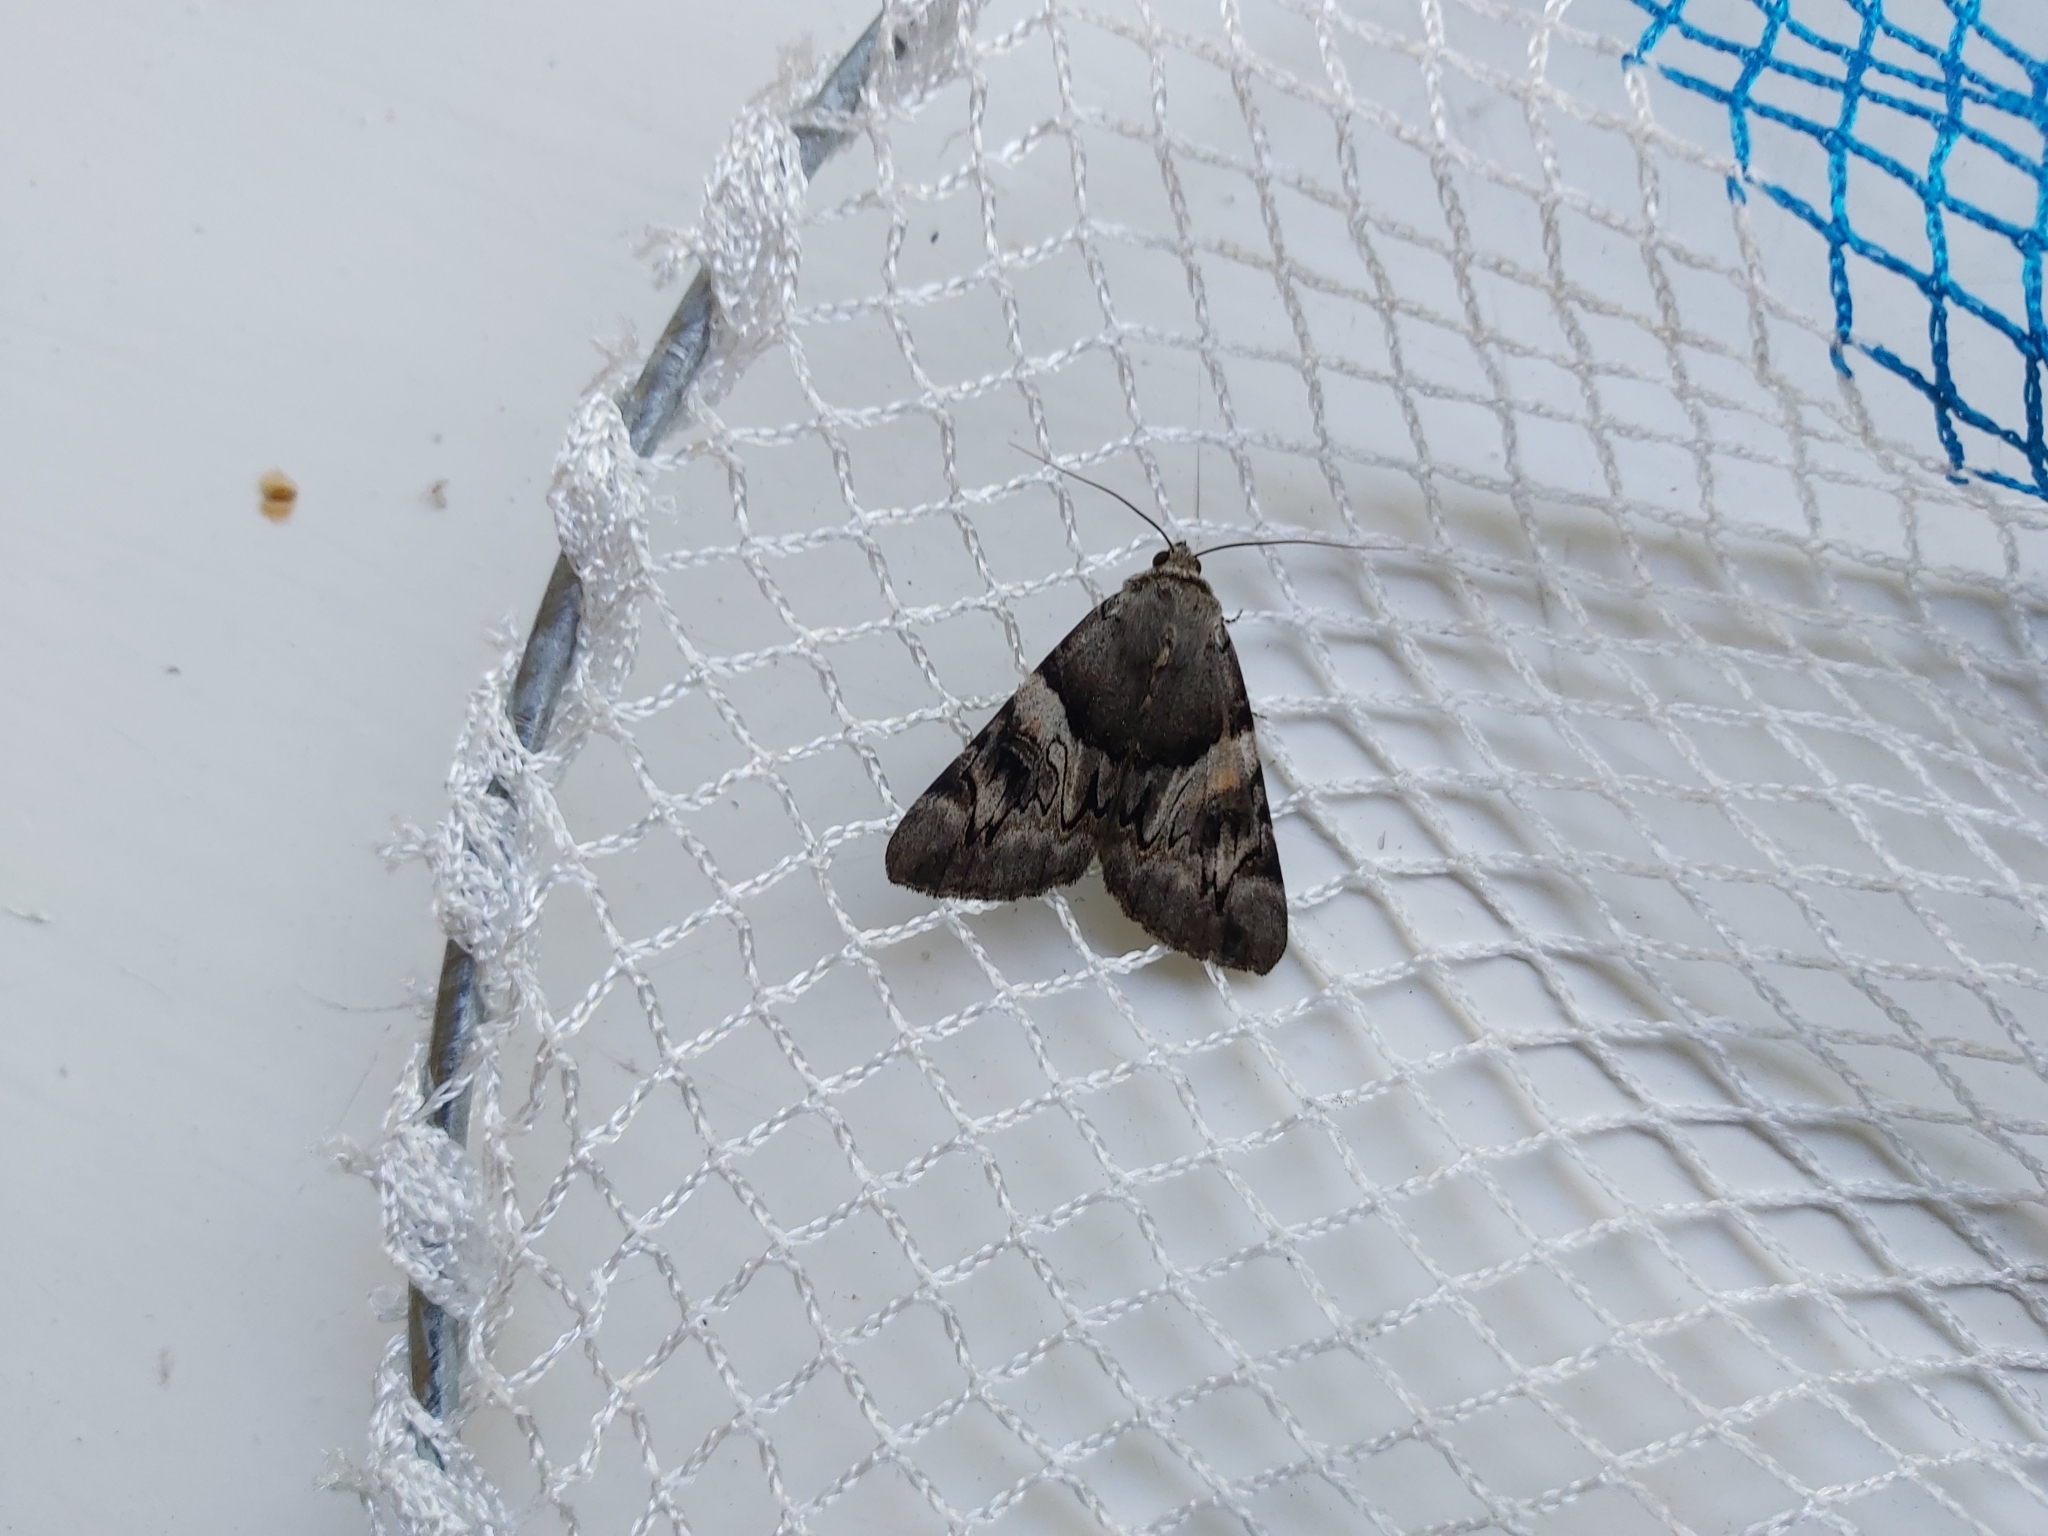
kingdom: Animalia
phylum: Arthropoda
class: Insecta
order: Lepidoptera
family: Erebidae
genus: Catocala
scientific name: Catocala fulminea
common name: Yellow bands underwing
